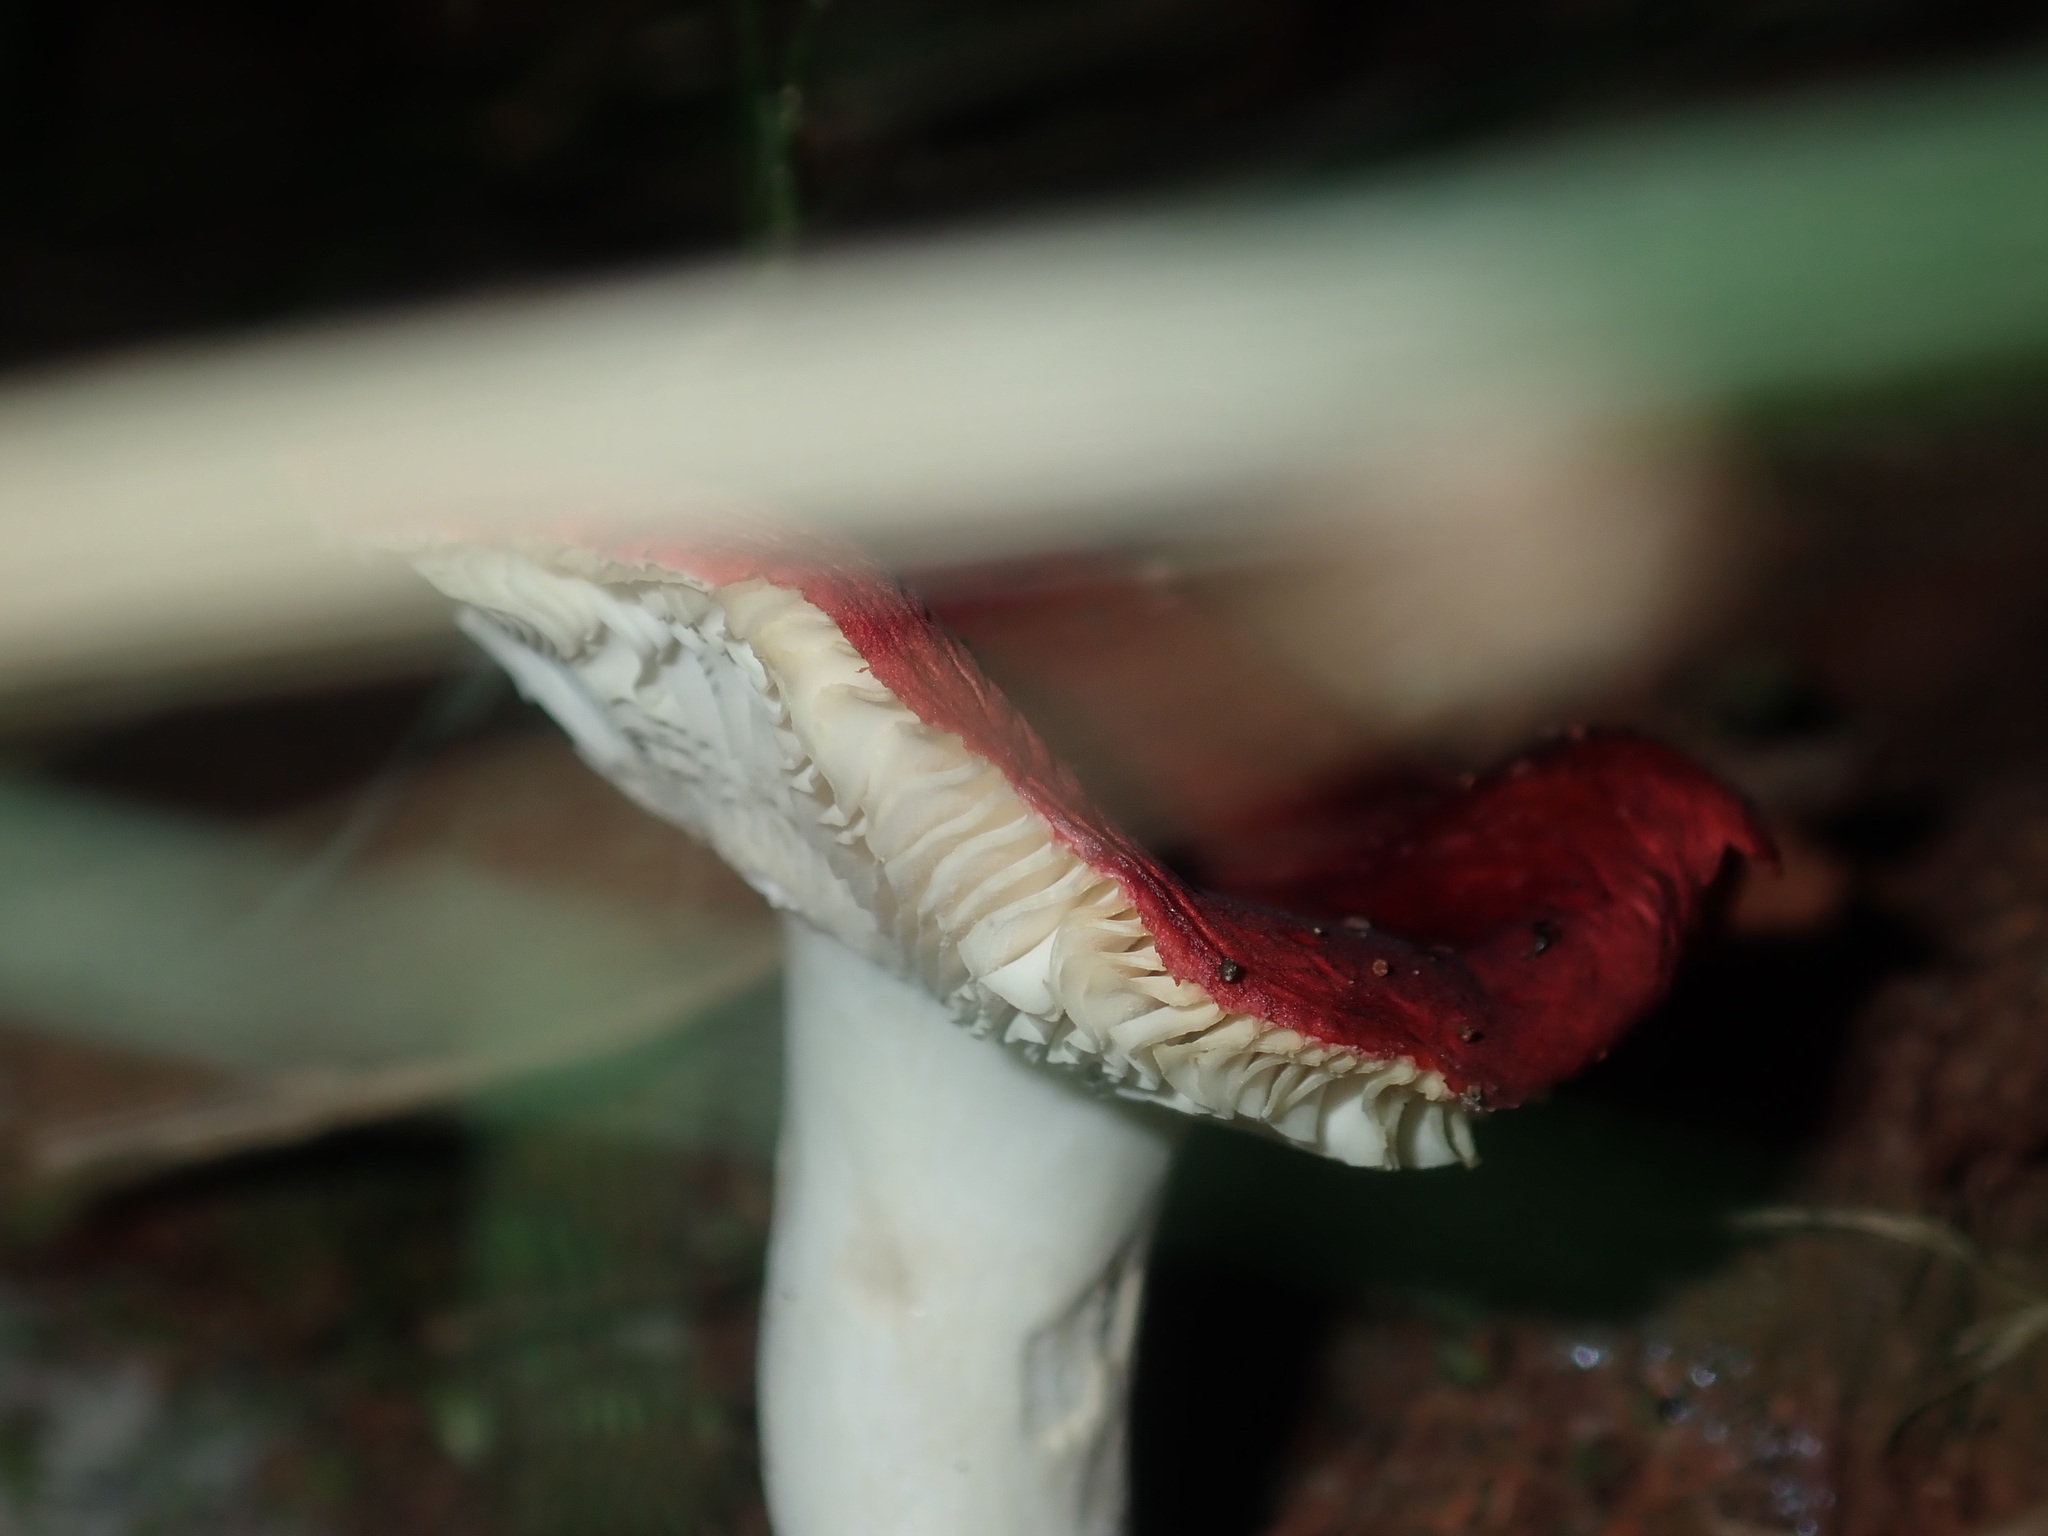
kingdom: Fungi
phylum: Basidiomycota
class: Agaricomycetes
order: Russulales
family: Russulaceae
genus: Russula
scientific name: Russula persanguinea
